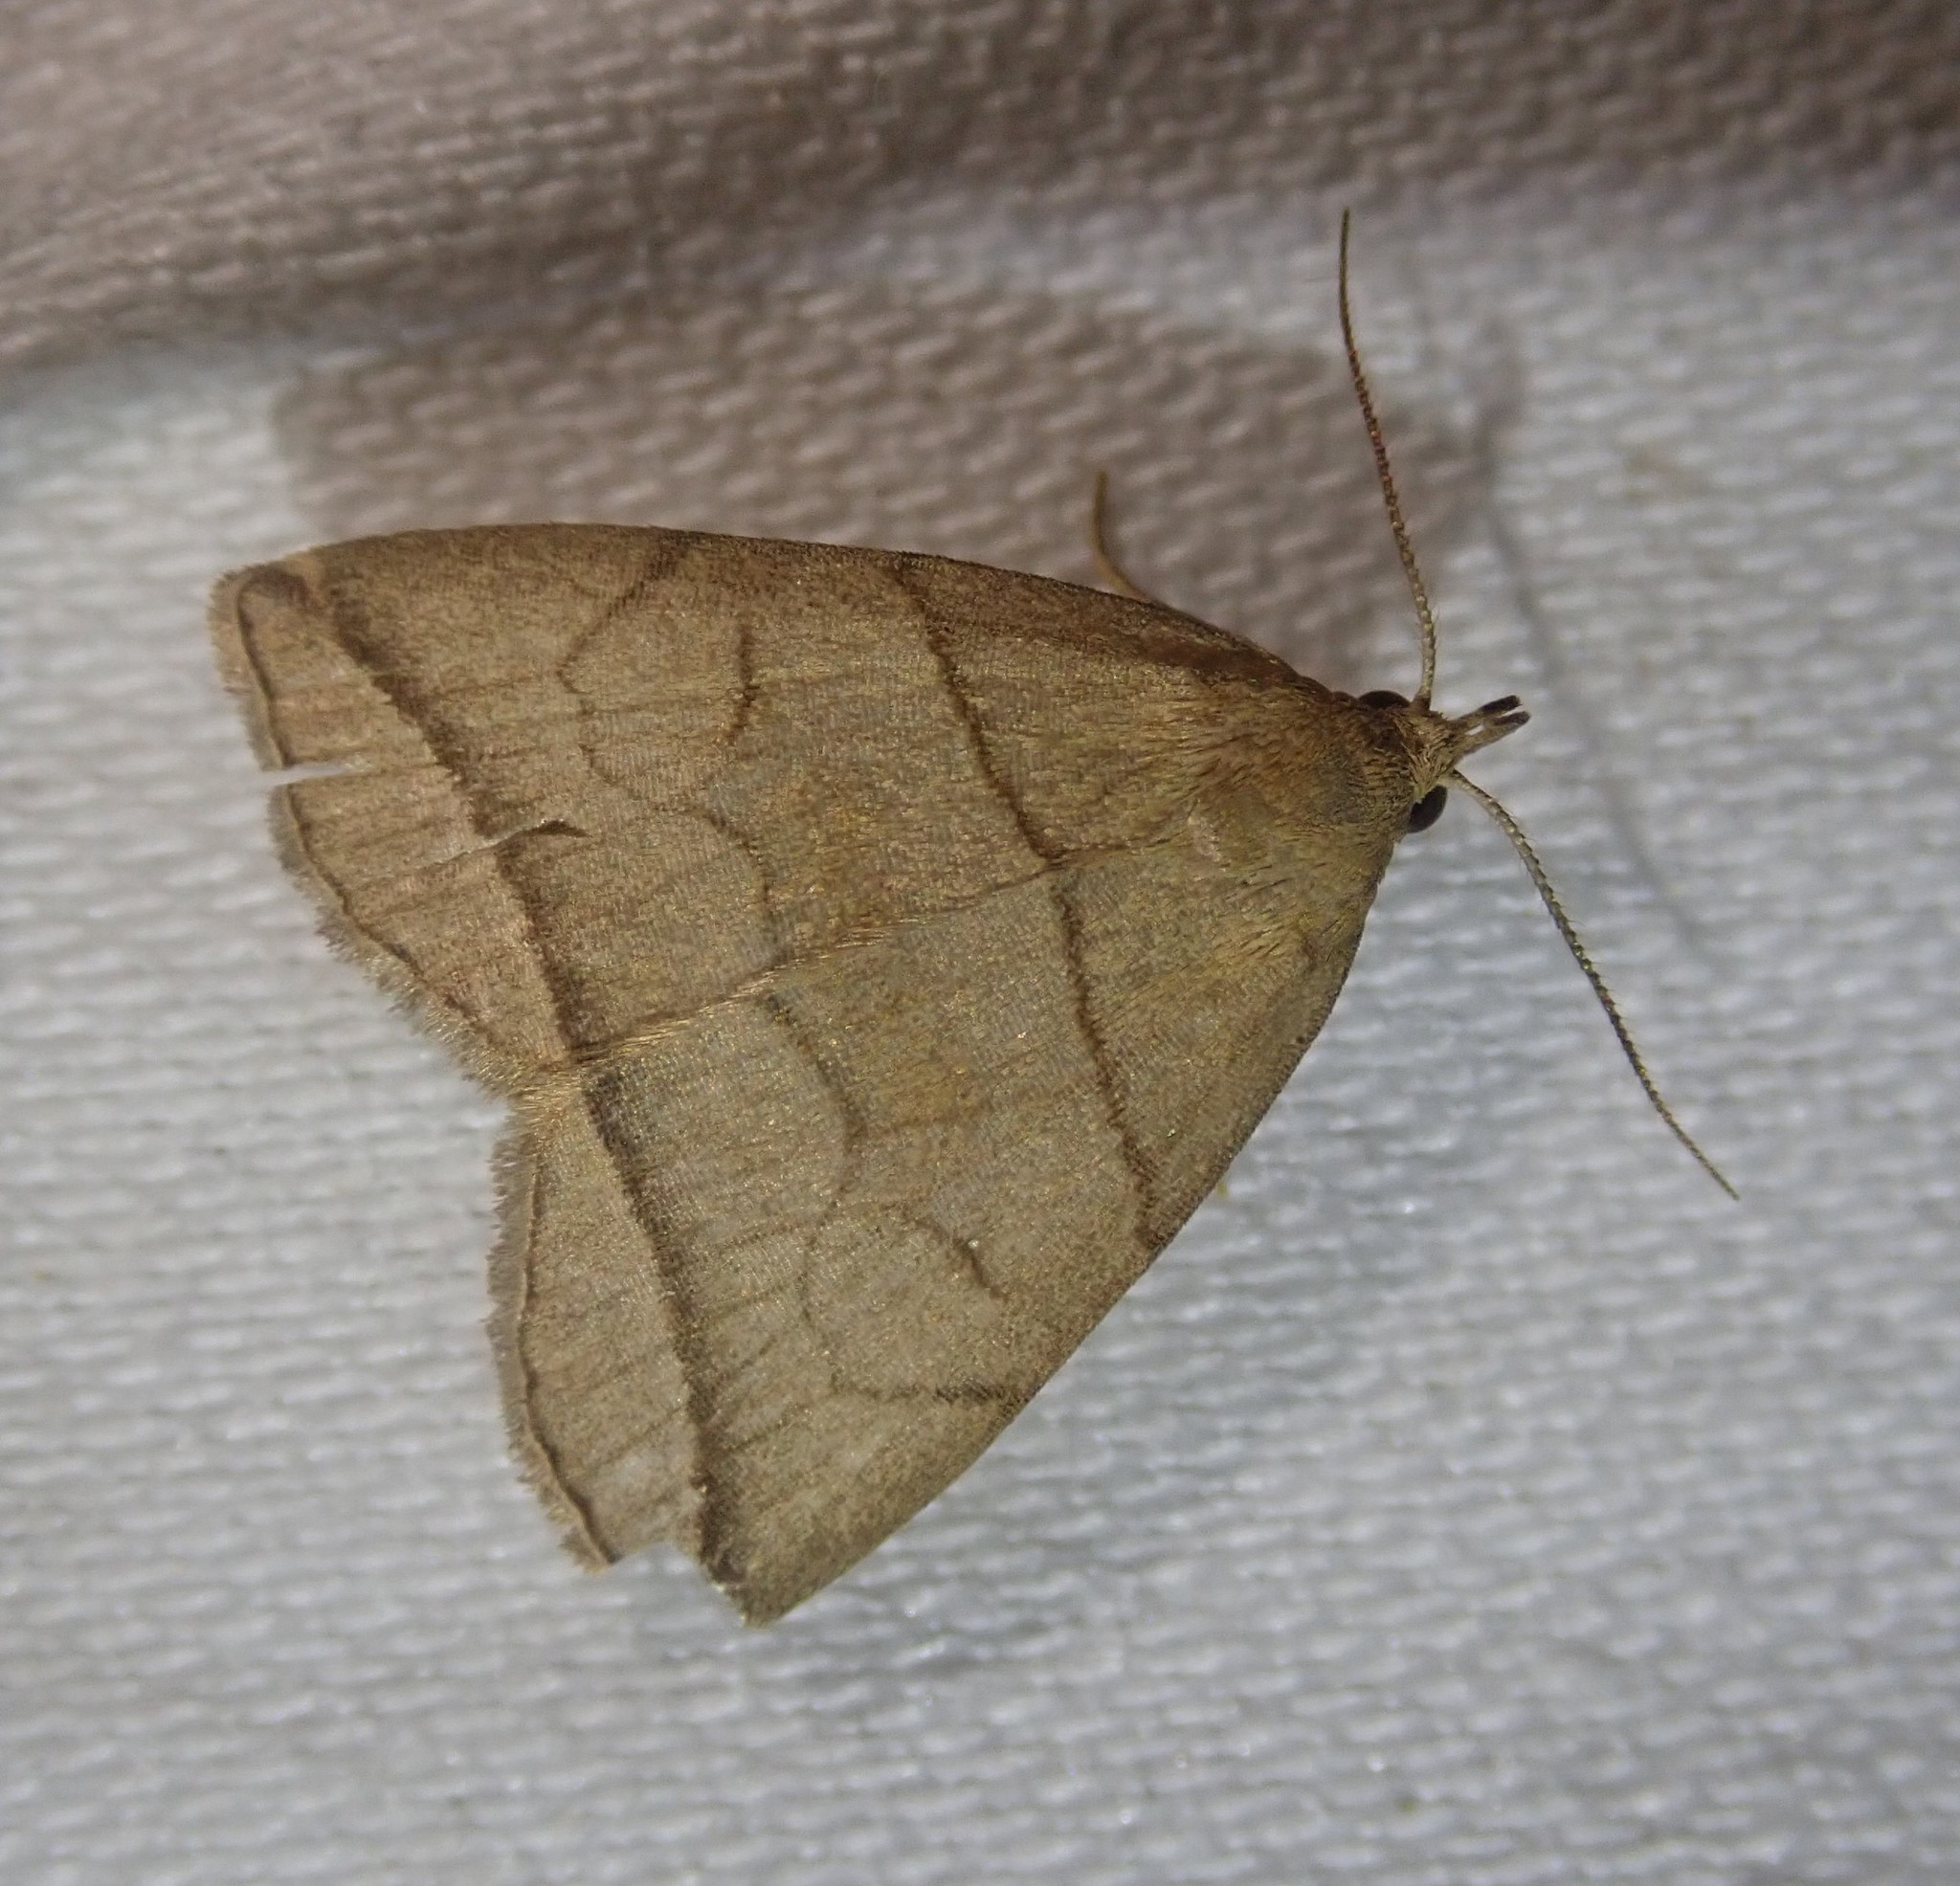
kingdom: Animalia
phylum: Arthropoda
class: Insecta
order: Lepidoptera
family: Erebidae
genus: Herminia
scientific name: Herminia grisealis
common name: Small fan-foot
